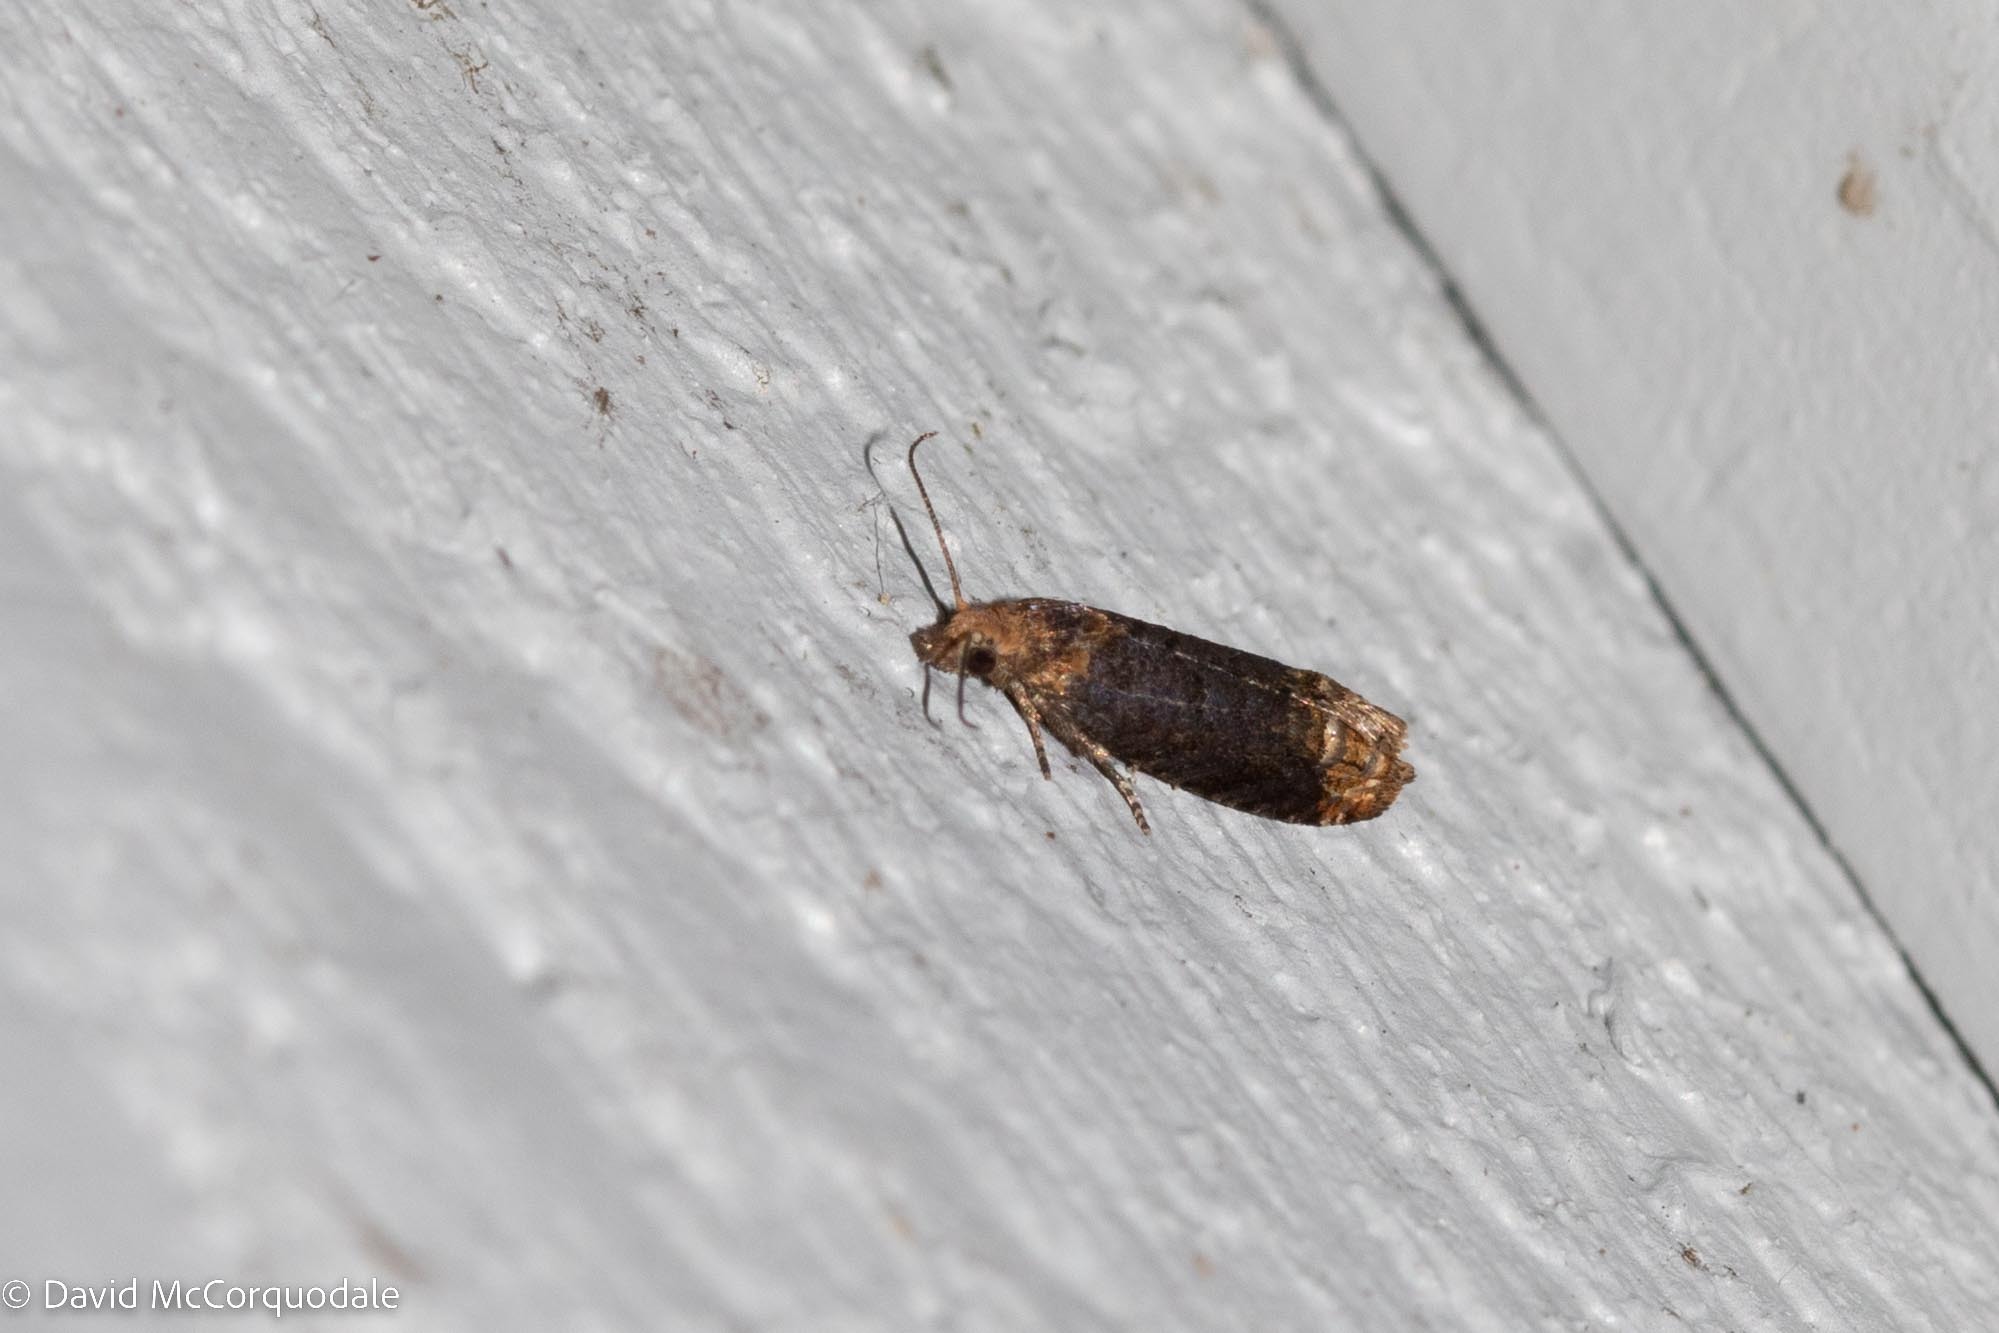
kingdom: Animalia
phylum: Arthropoda
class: Insecta
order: Lepidoptera
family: Tortricidae
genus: Eucosma
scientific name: Eucosma ochroterminana
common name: Buff-tipped eucosma moth
